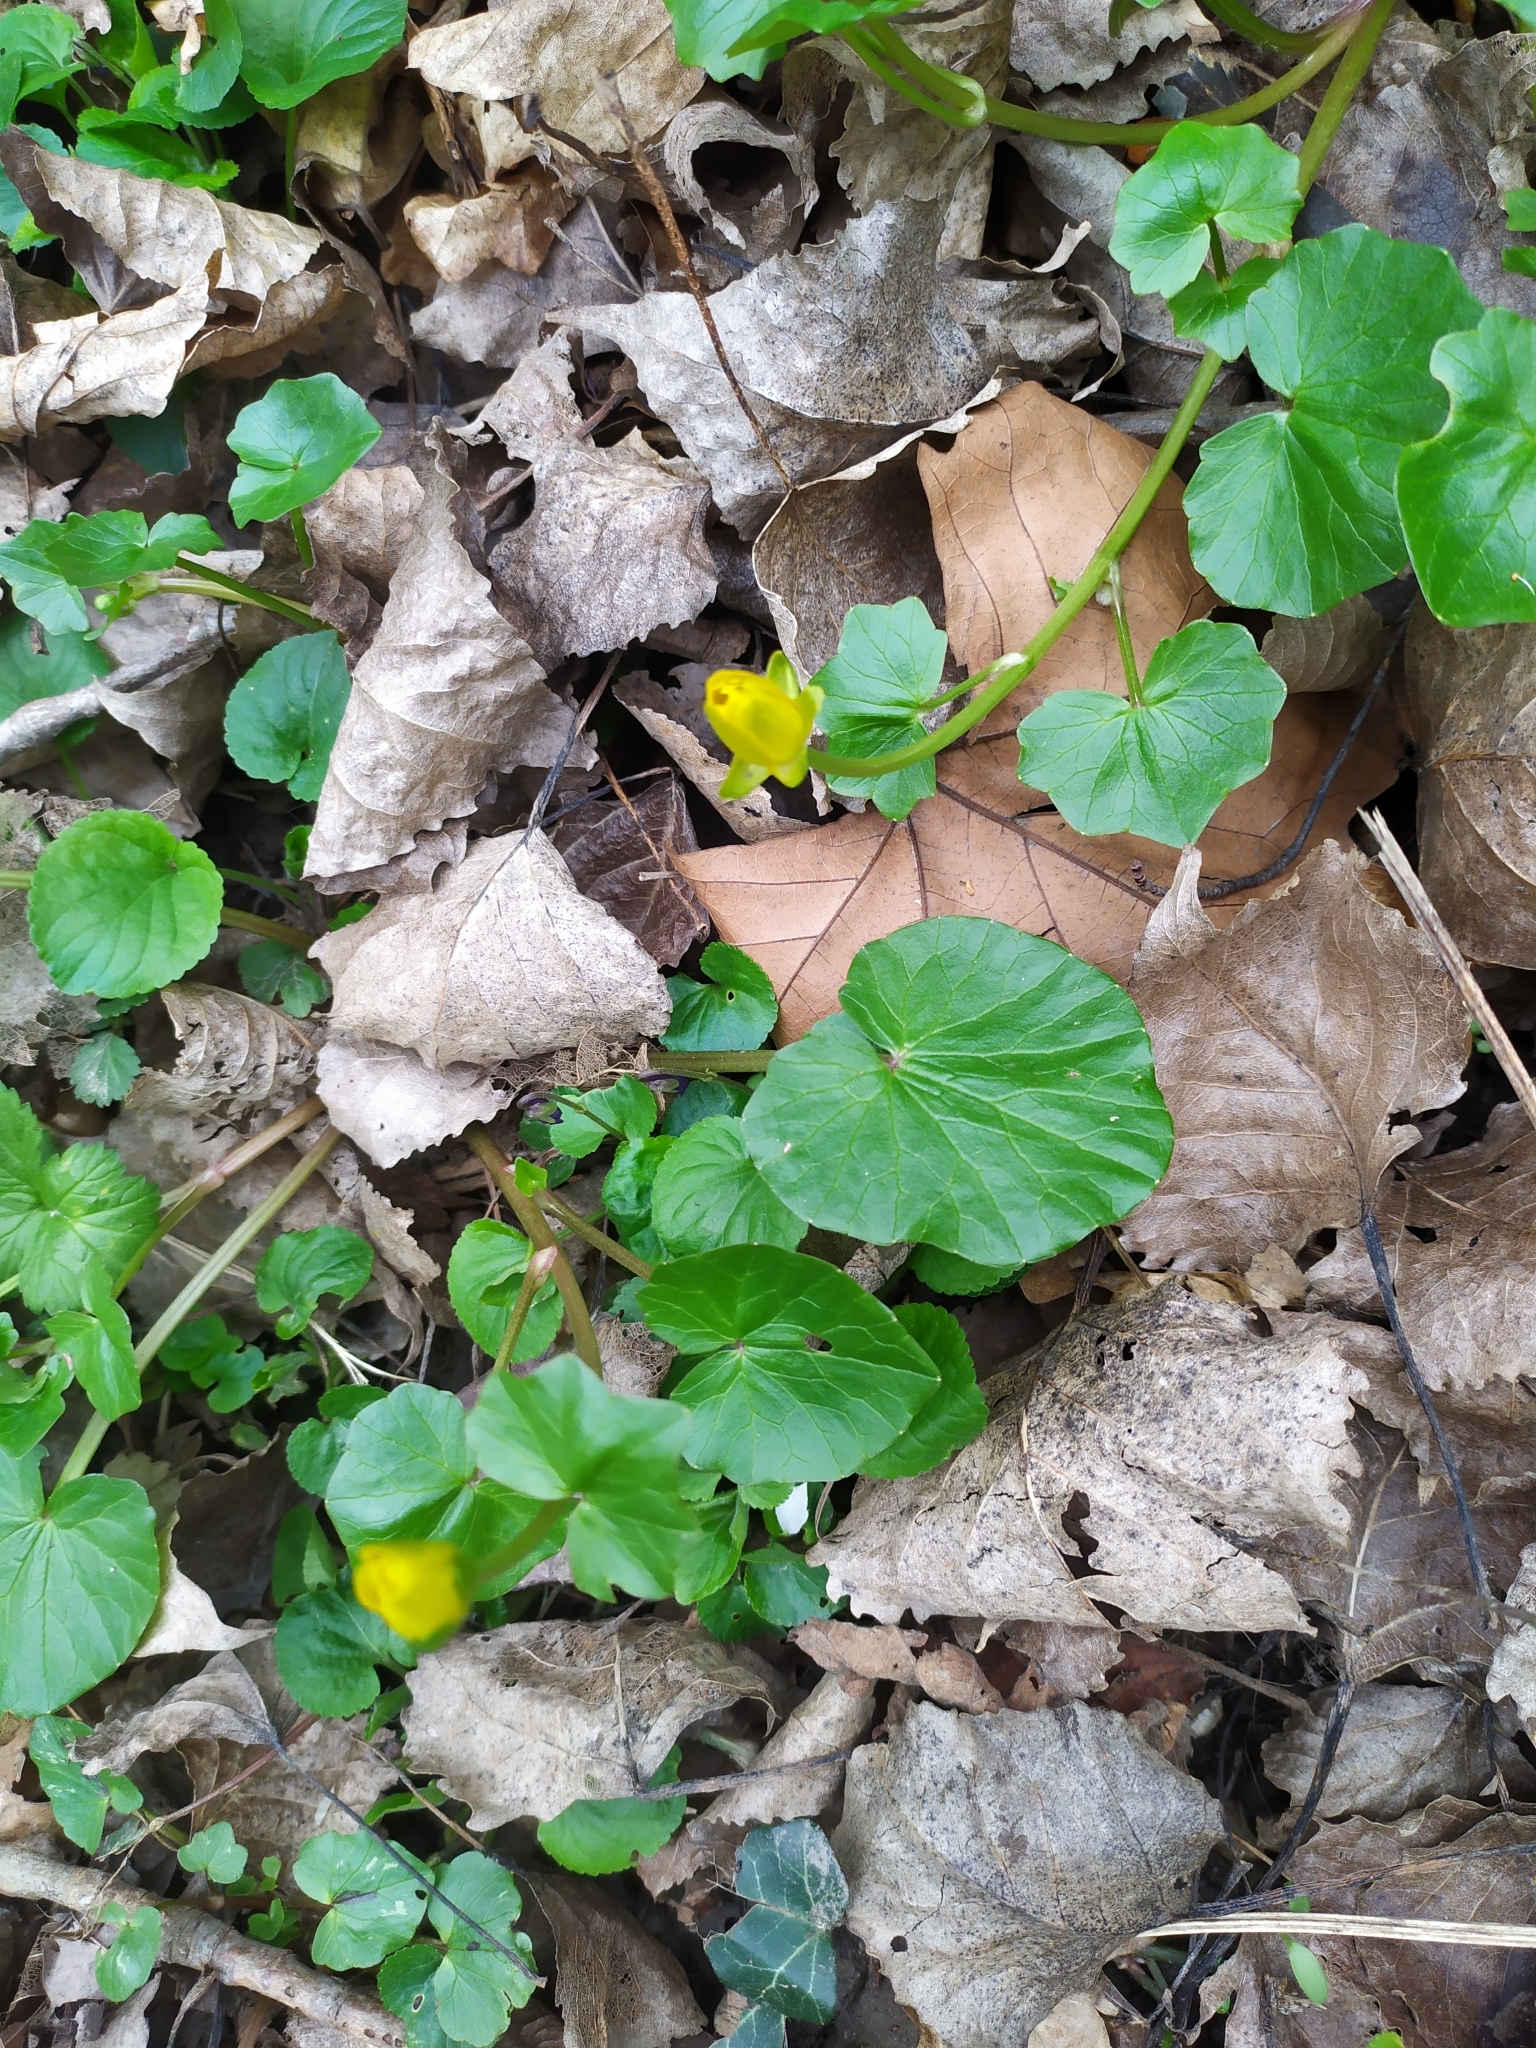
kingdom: Plantae
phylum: Tracheophyta
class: Magnoliopsida
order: Ranunculales
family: Ranunculaceae
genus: Ficaria
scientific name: Ficaria verna
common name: Lesser celandine
